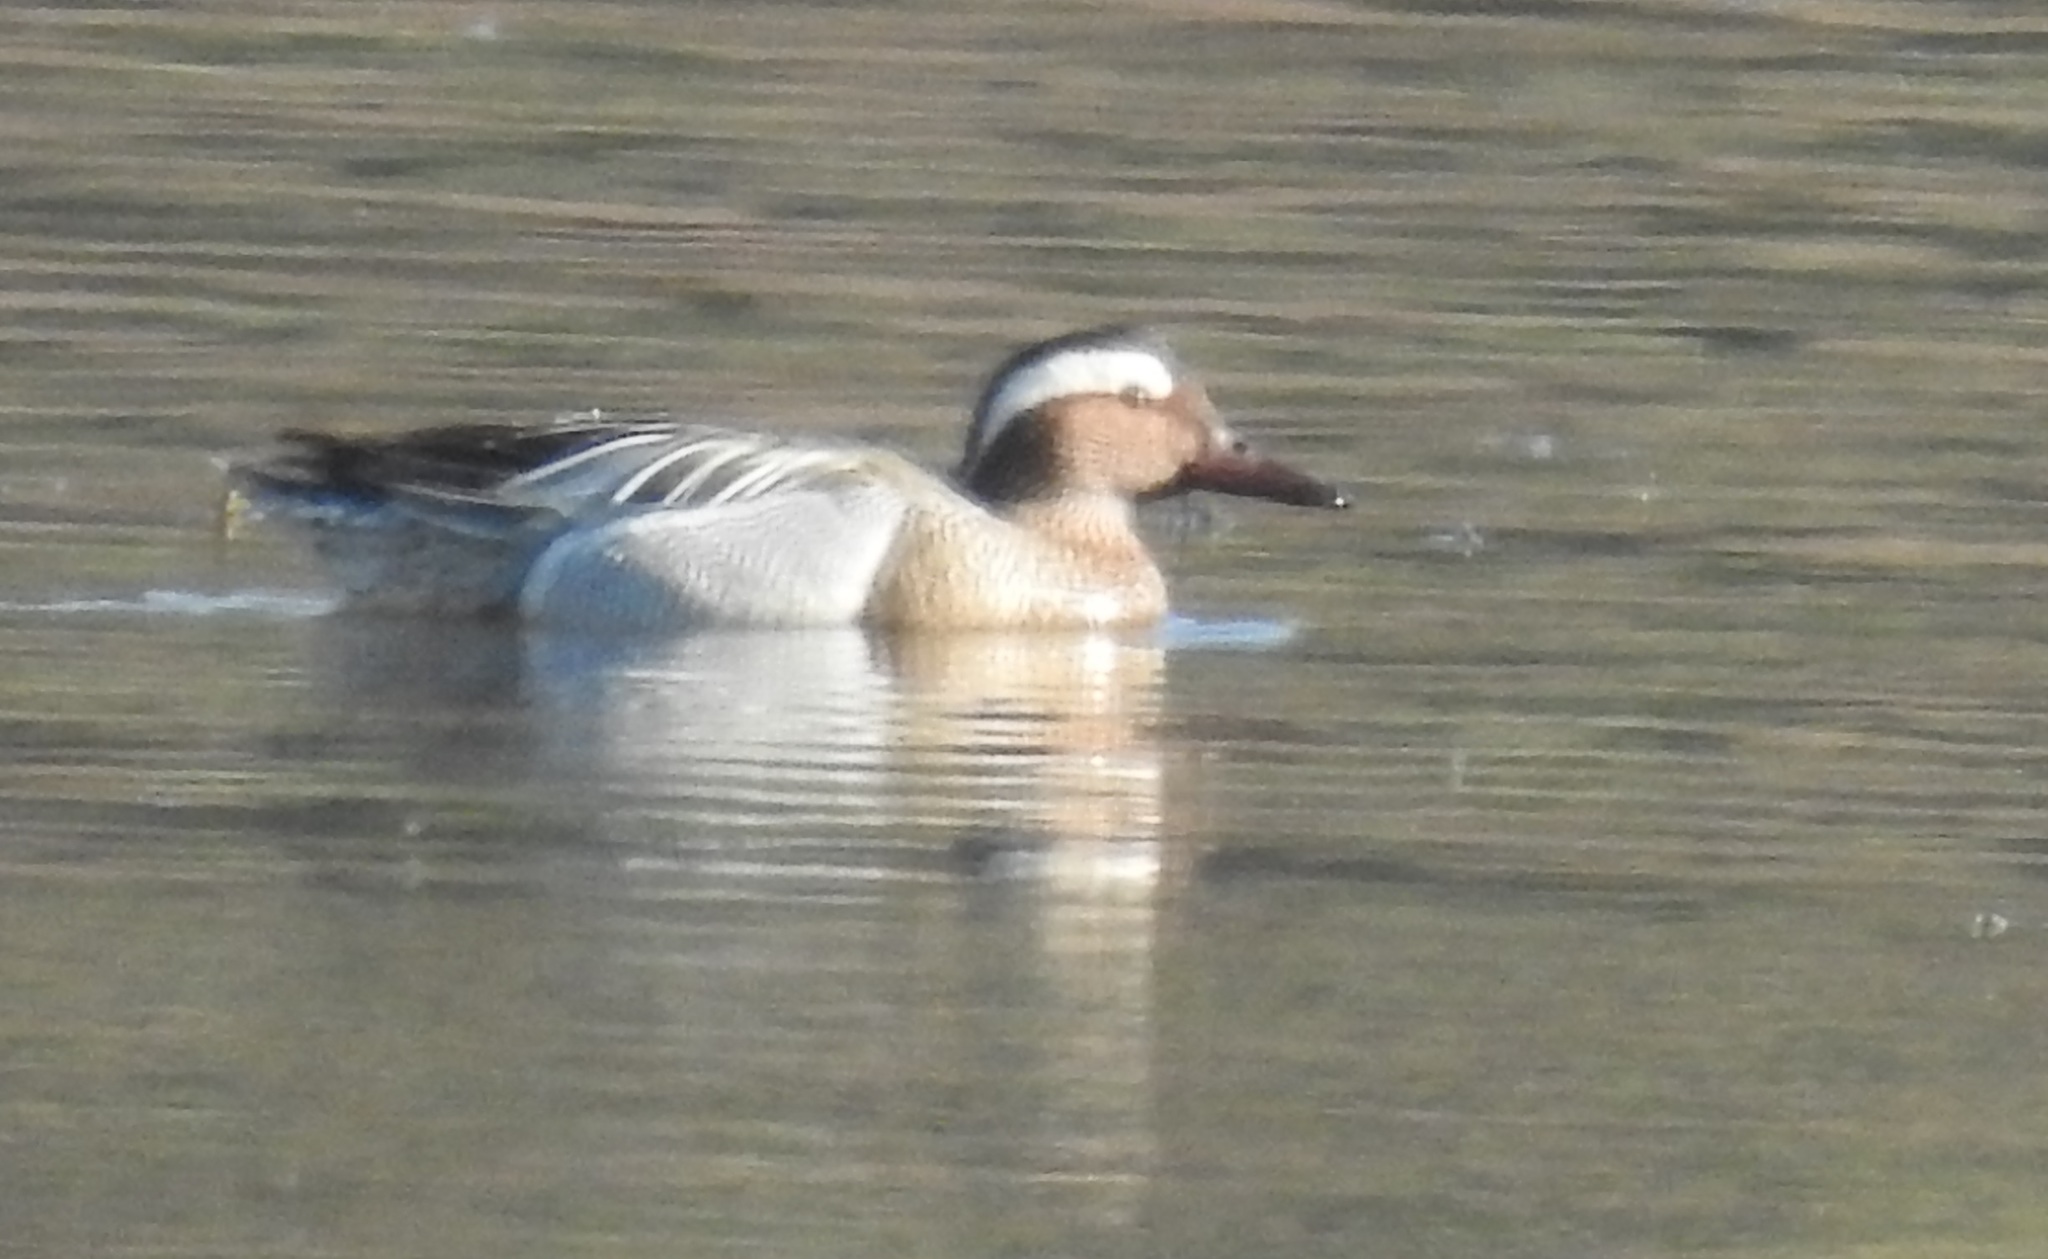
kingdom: Animalia
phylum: Chordata
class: Aves
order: Anseriformes
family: Anatidae
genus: Spatula
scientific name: Spatula querquedula
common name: Garganey
